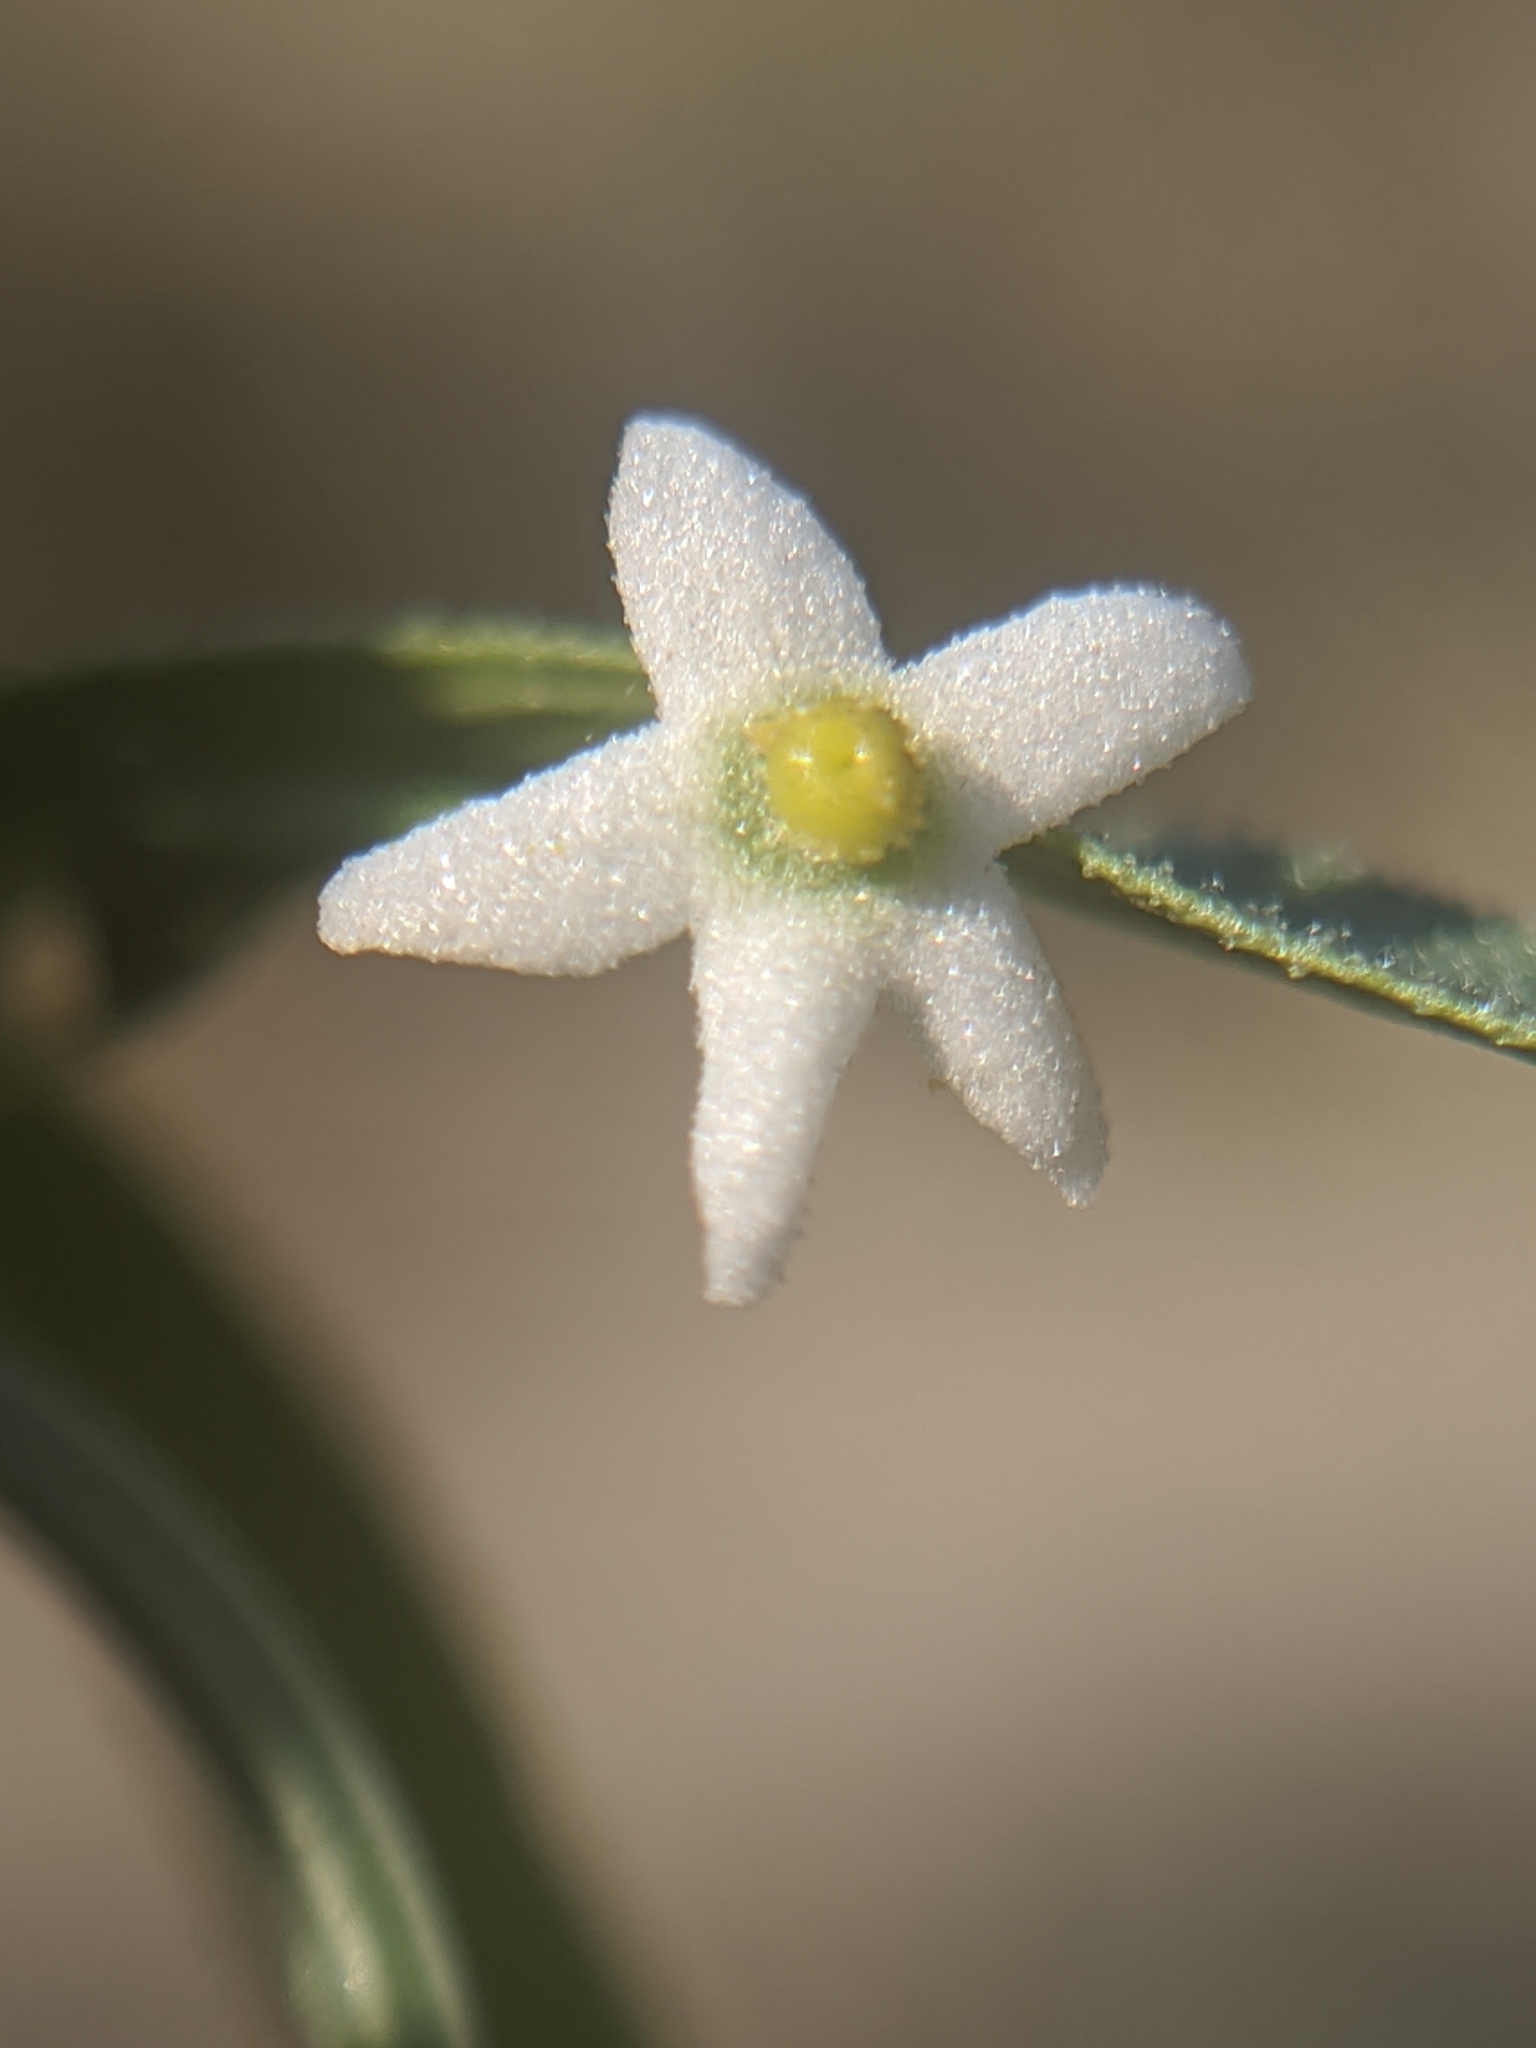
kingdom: Plantae
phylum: Tracheophyta
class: Magnoliopsida
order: Cucurbitales
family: Cucurbitaceae
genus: Echinopepon
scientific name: Echinopepon bigelovii
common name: Desert starvine
